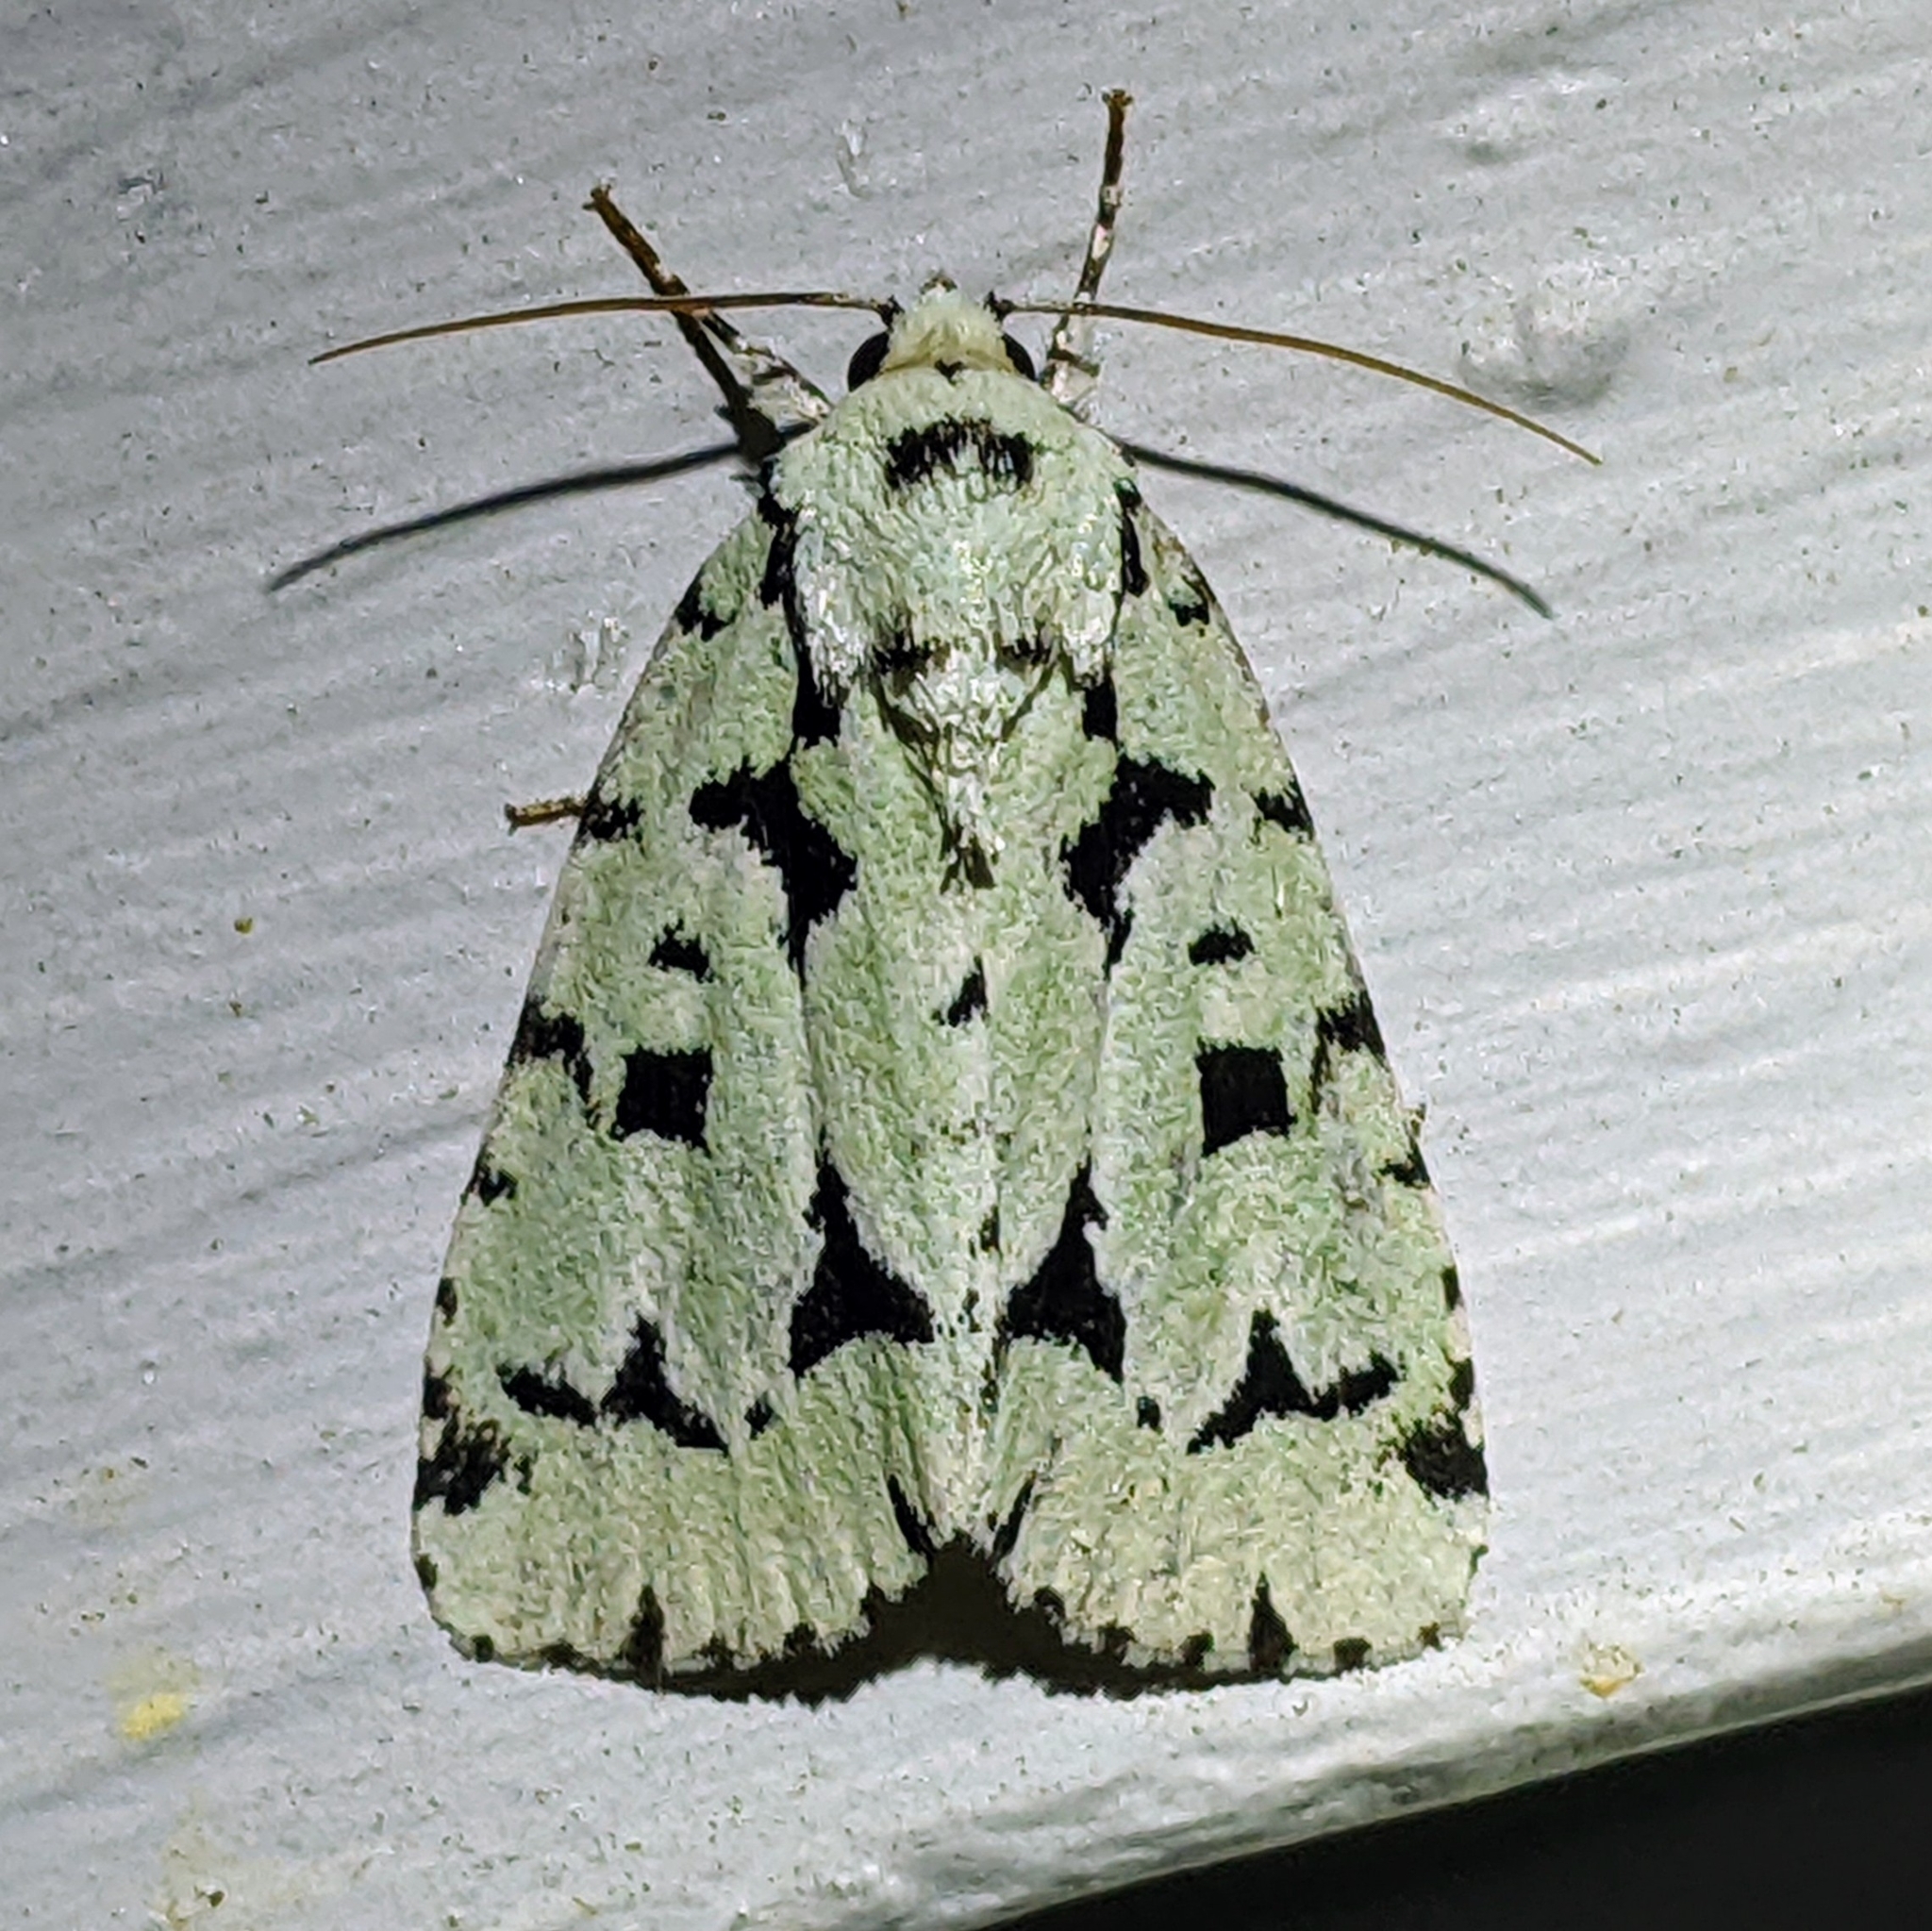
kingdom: Animalia
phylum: Arthropoda
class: Insecta
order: Lepidoptera
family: Noctuidae
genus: Acronicta
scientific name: Acronicta fallax
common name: Green marvel
